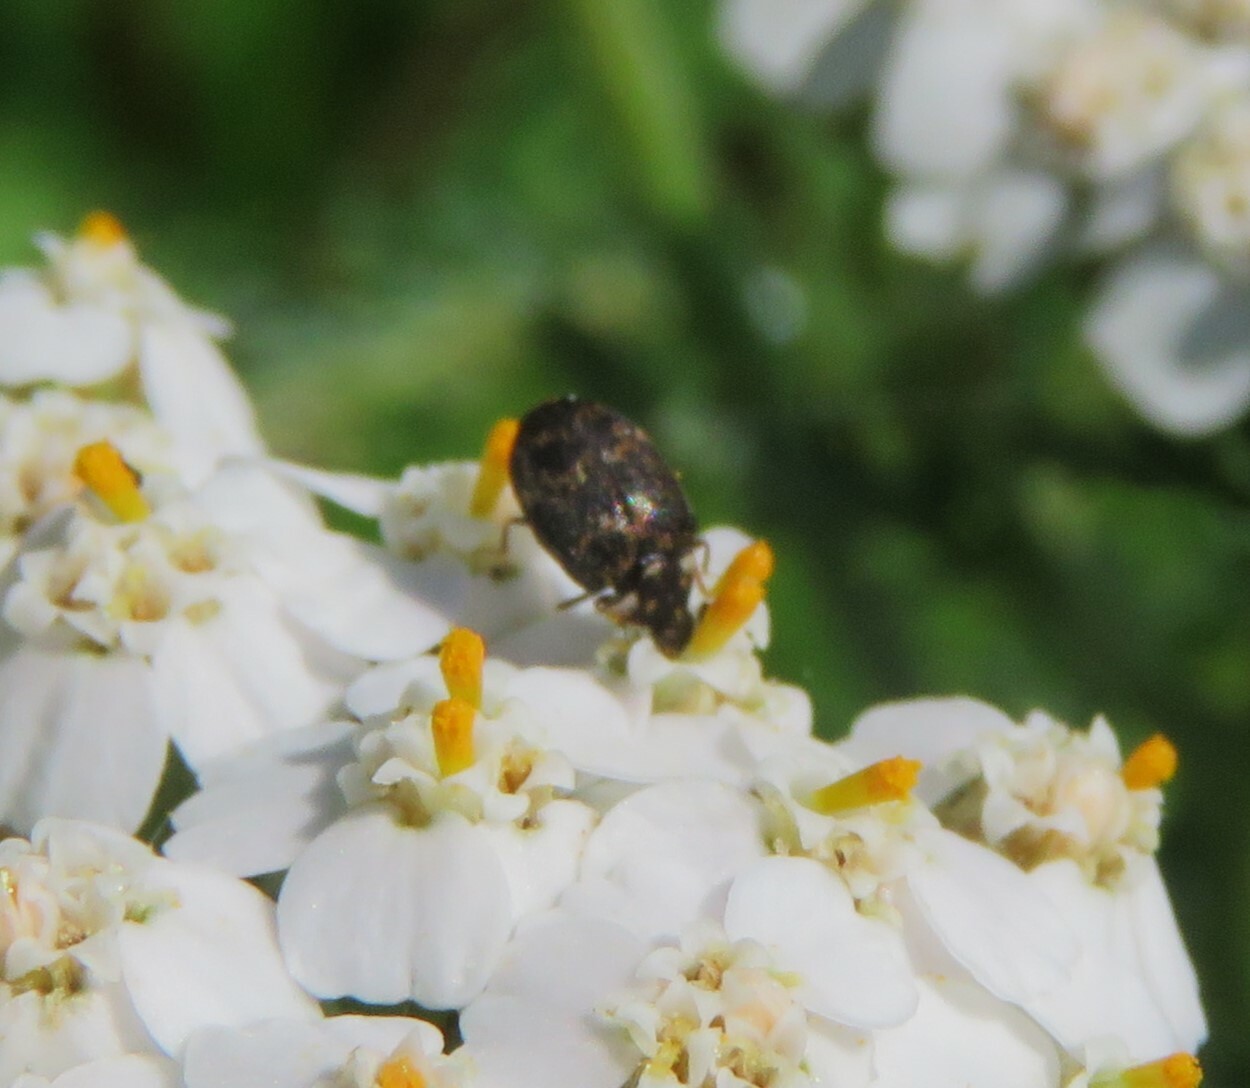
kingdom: Animalia
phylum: Arthropoda
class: Insecta
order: Coleoptera
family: Dermestidae
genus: Anthrenus
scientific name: Anthrenus museorum
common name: Museum beetle
